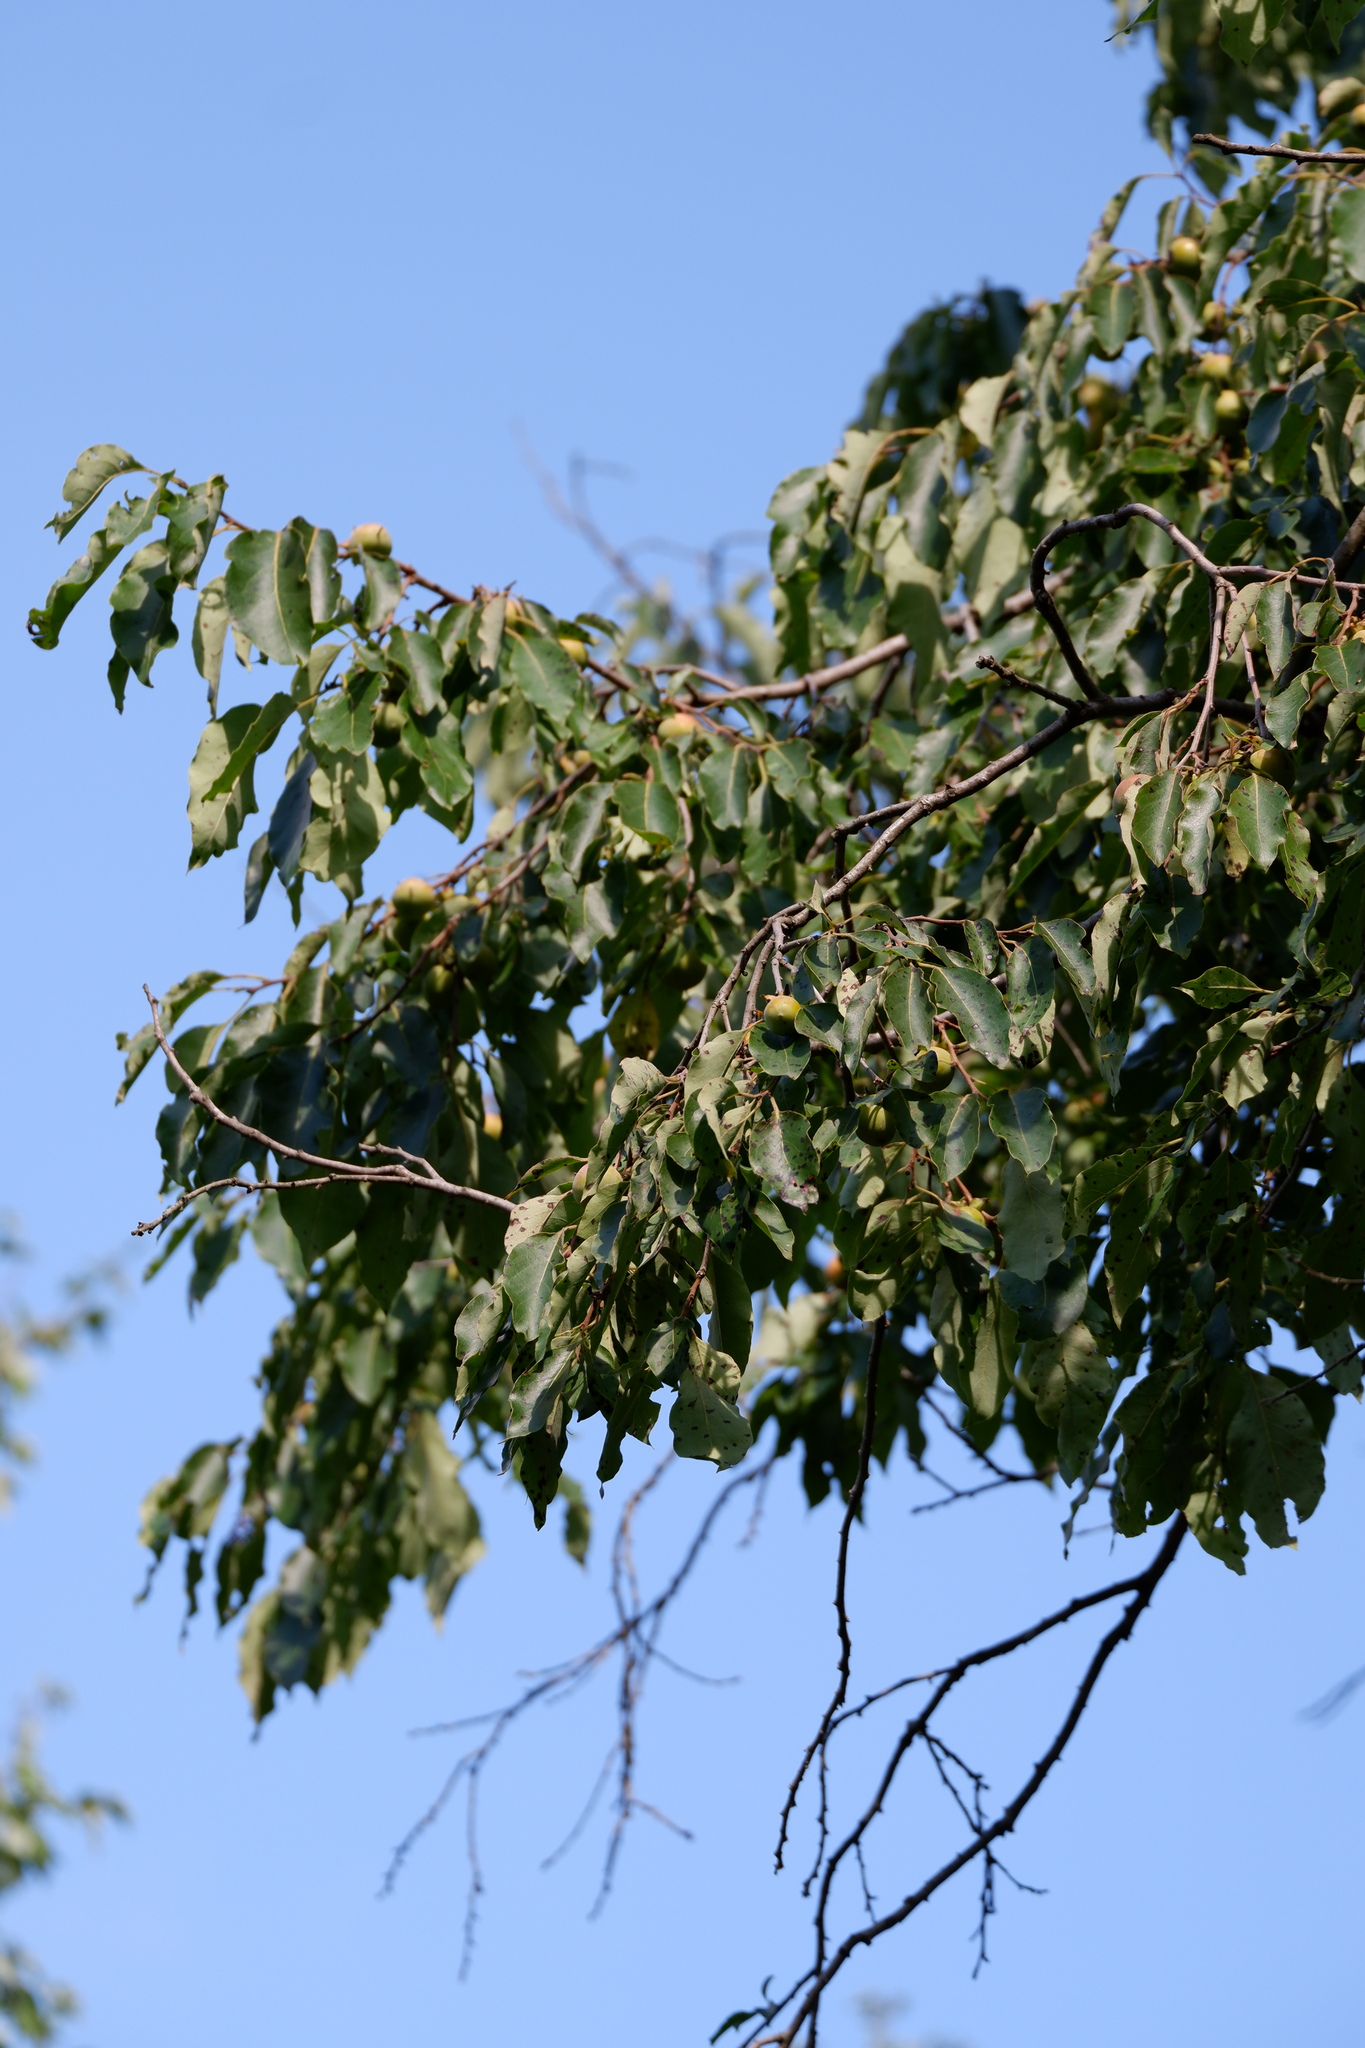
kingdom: Plantae
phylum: Tracheophyta
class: Magnoliopsida
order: Ericales
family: Ebenaceae
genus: Diospyros
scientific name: Diospyros virginiana
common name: Persimmon
